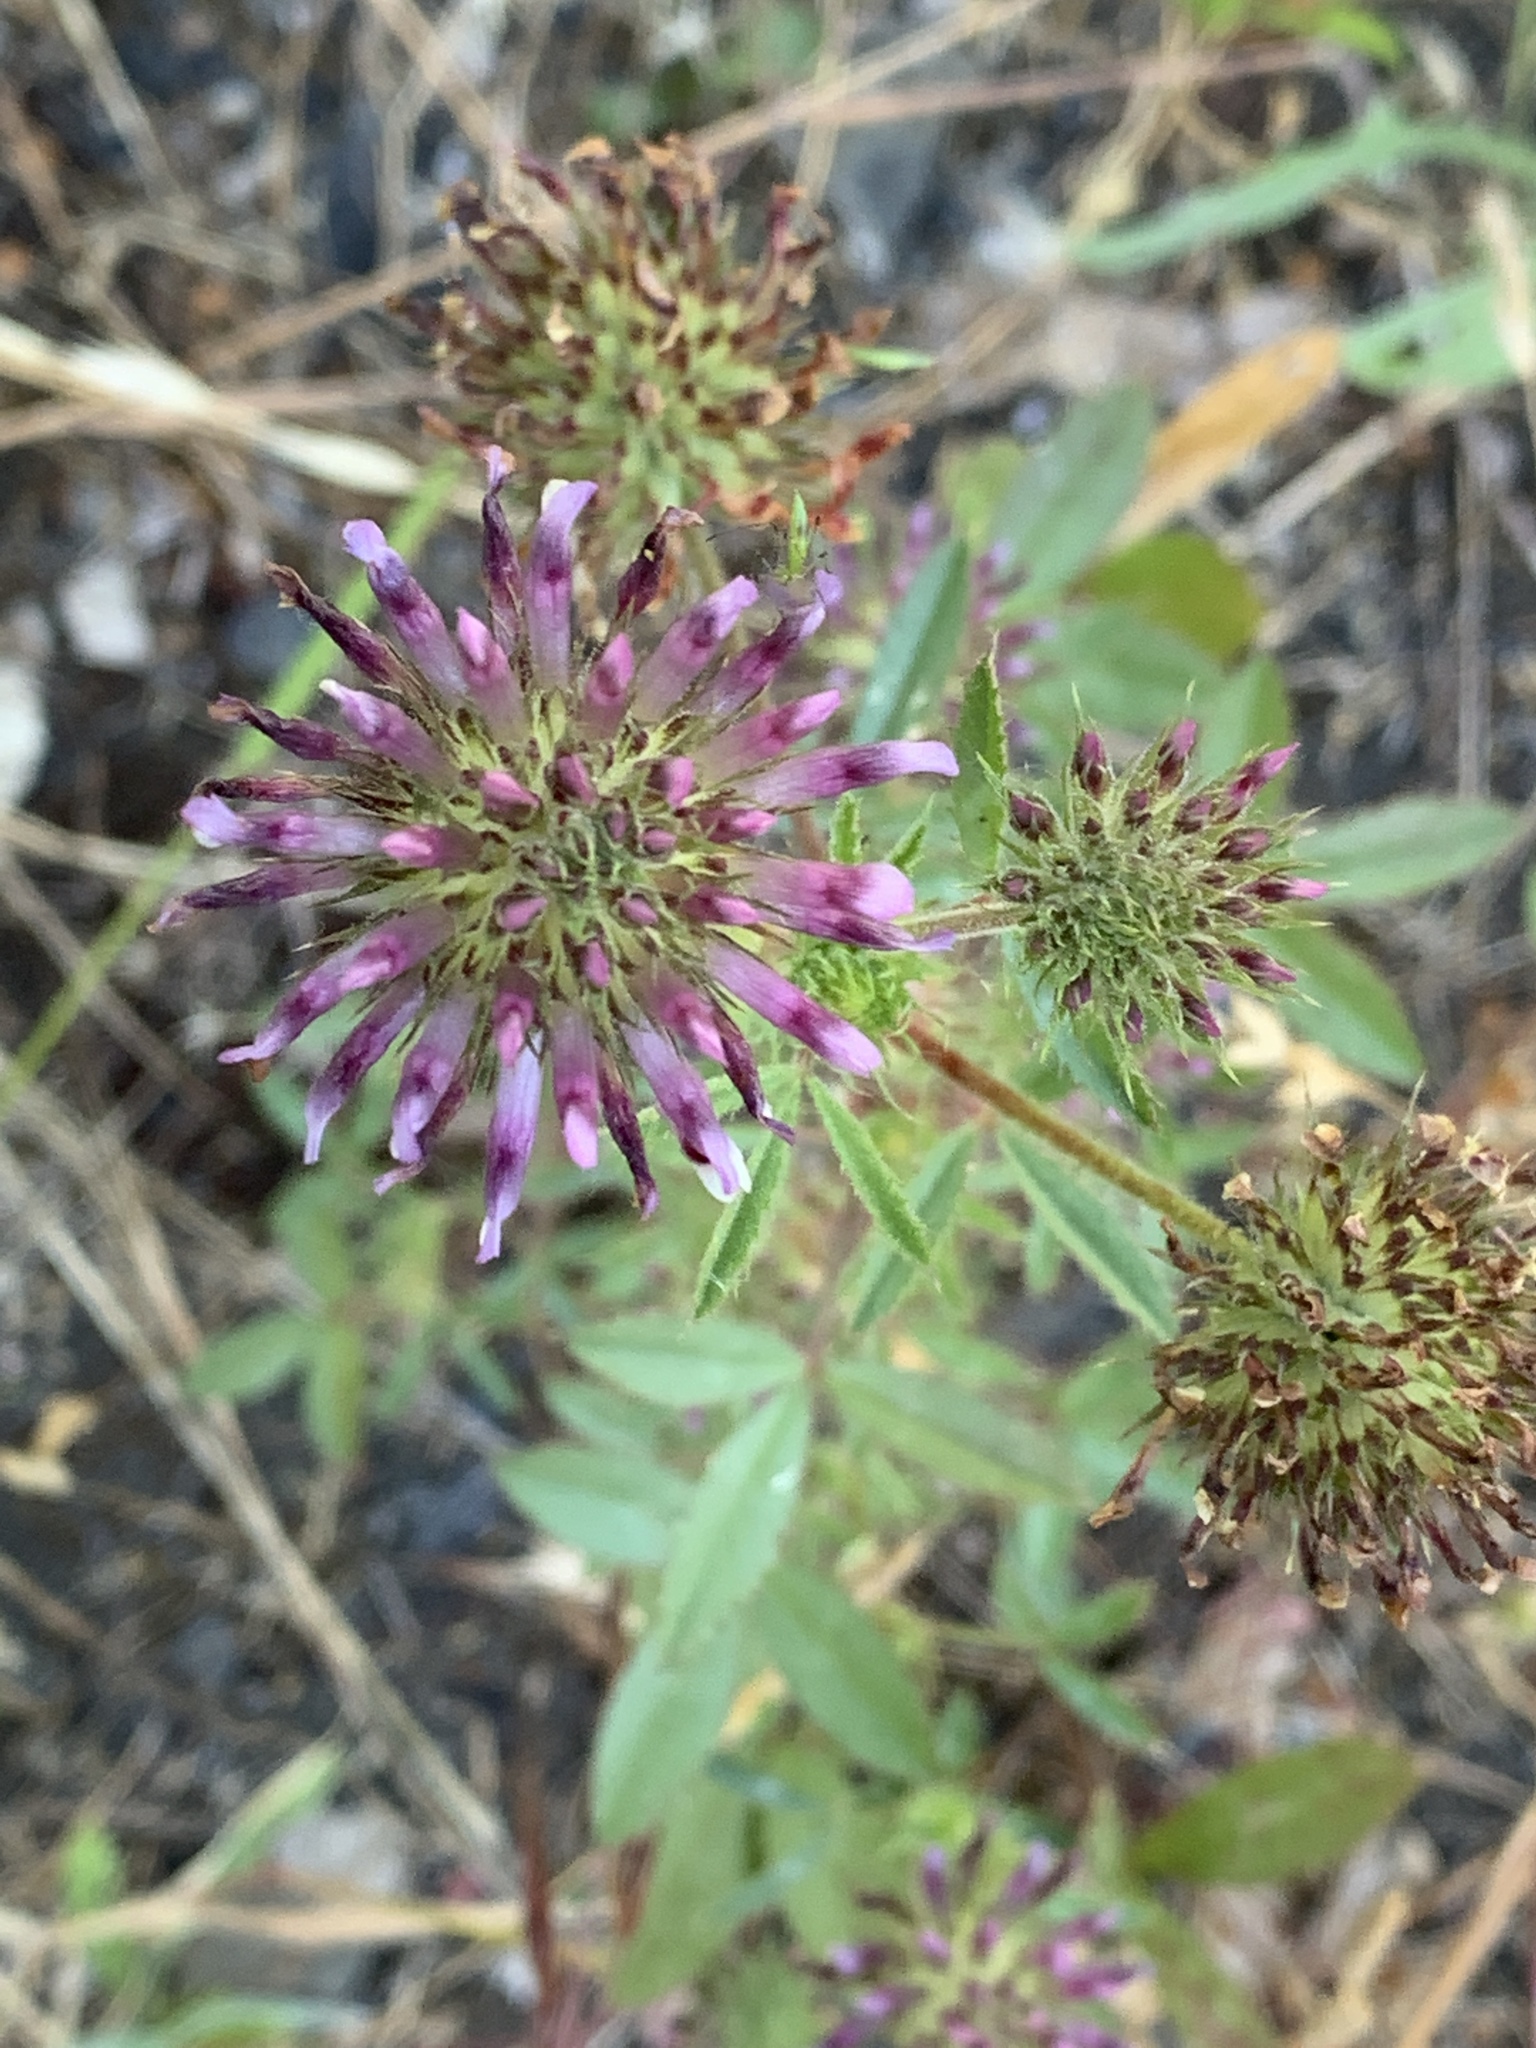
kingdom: Plantae
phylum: Tracheophyta
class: Magnoliopsida
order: Fabales
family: Fabaceae
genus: Trifolium
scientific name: Trifolium obtusiflorum
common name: Clammy clover
